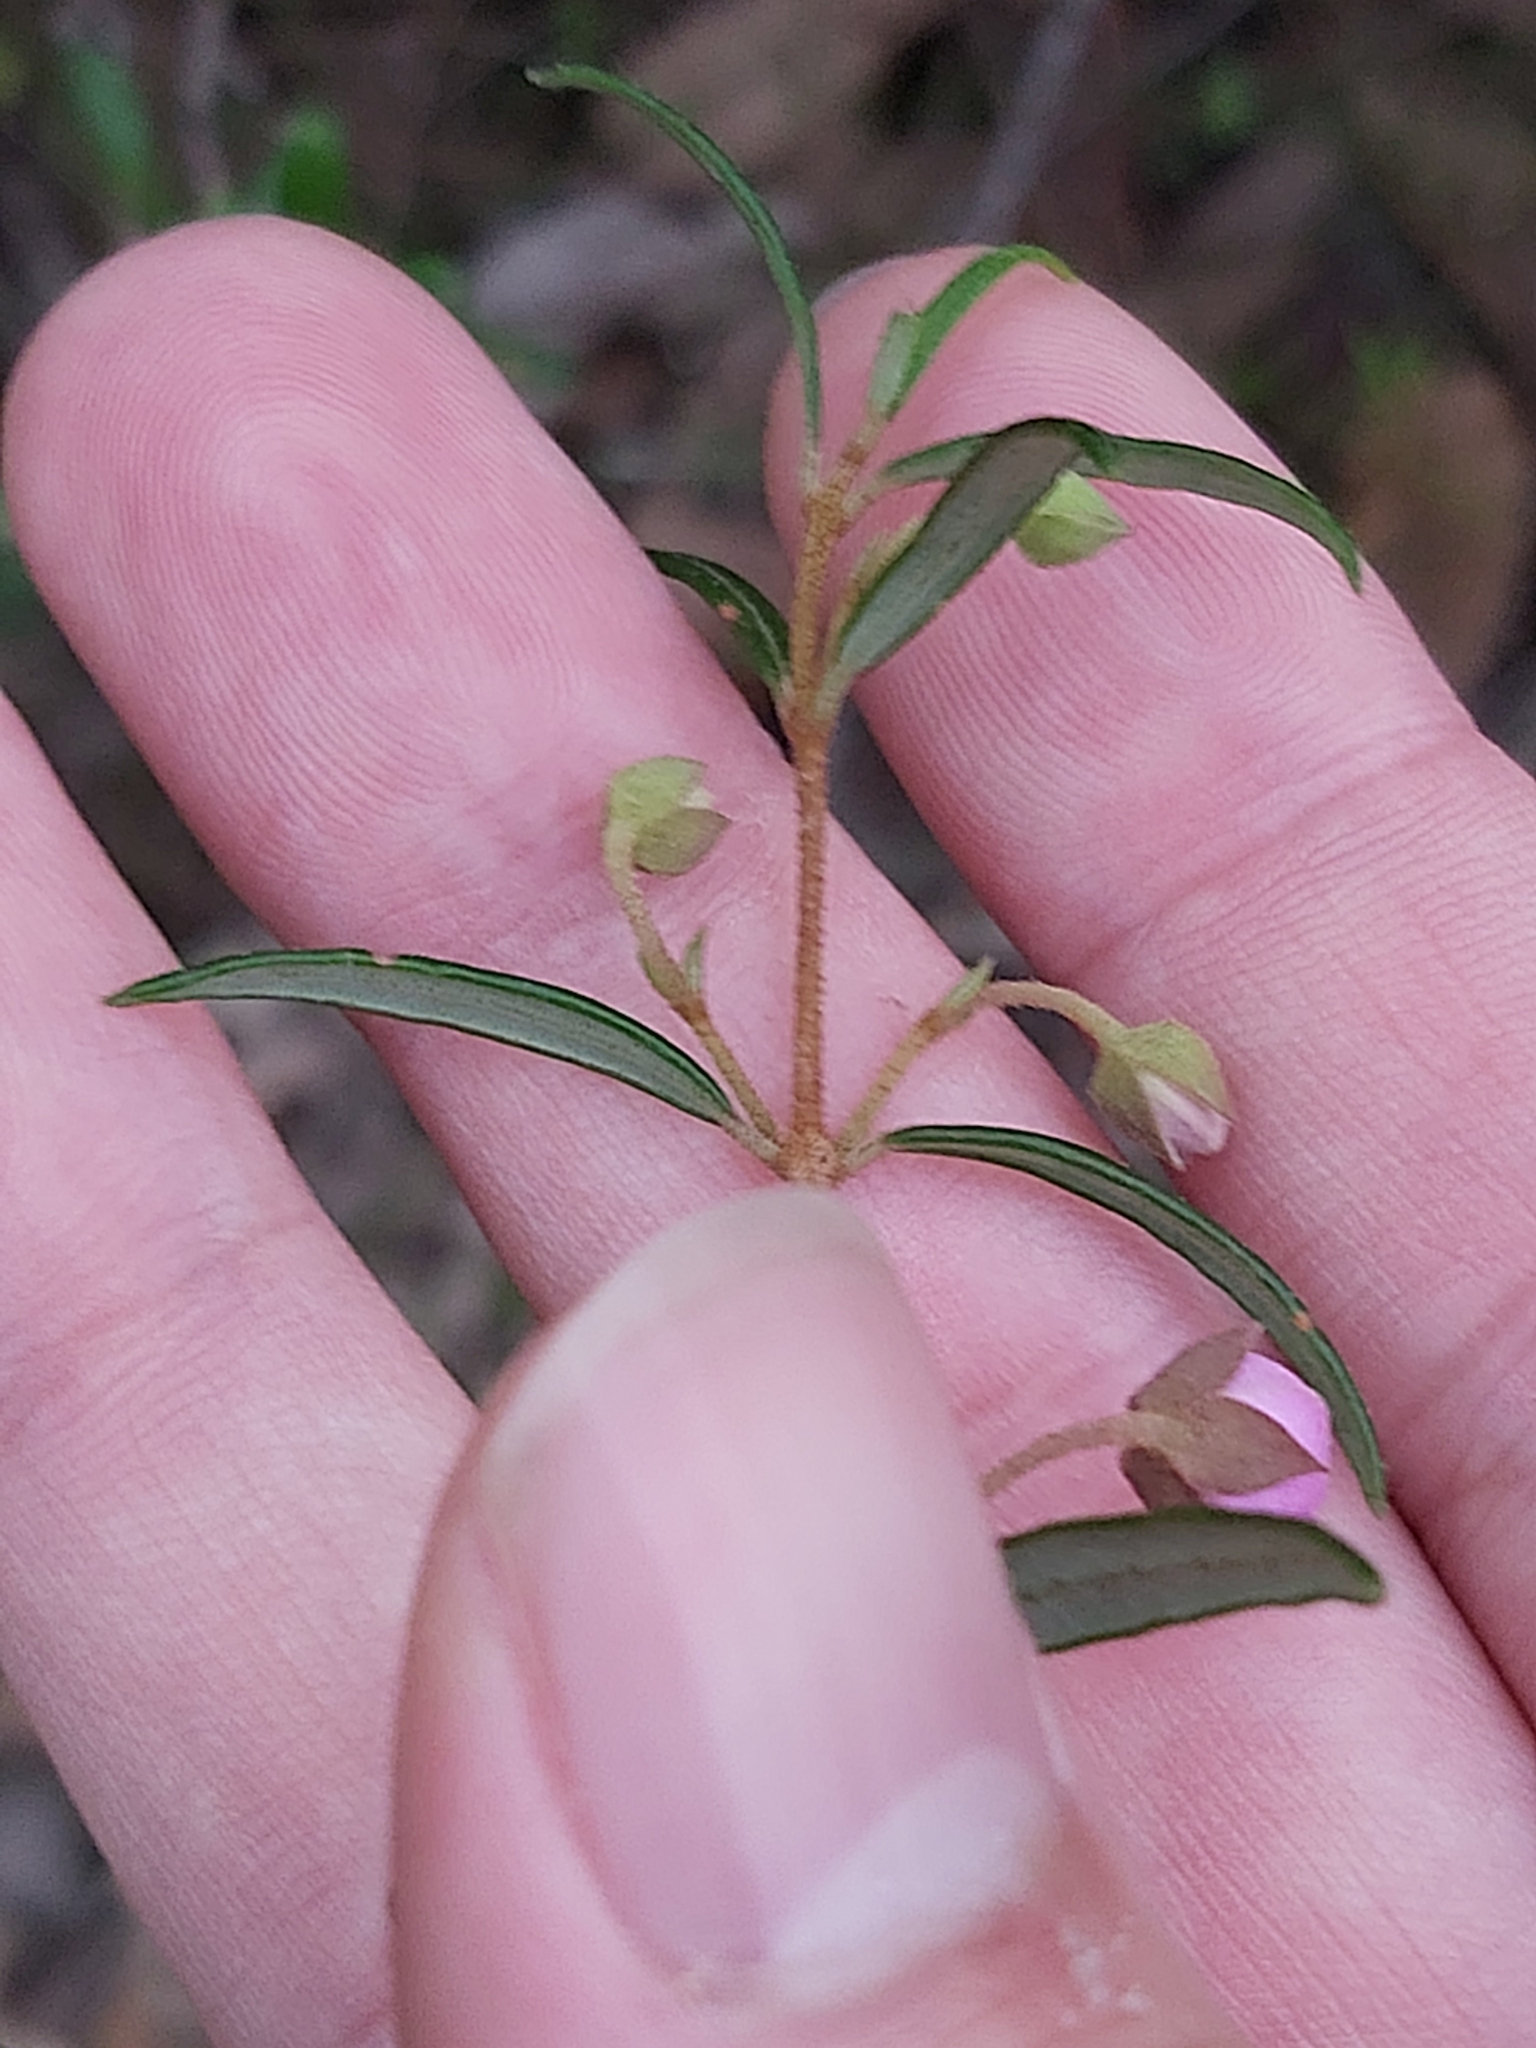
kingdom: Plantae
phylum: Tracheophyta
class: Magnoliopsida
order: Sapindales
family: Rutaceae
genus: Boronia
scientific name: Boronia ledifolia
